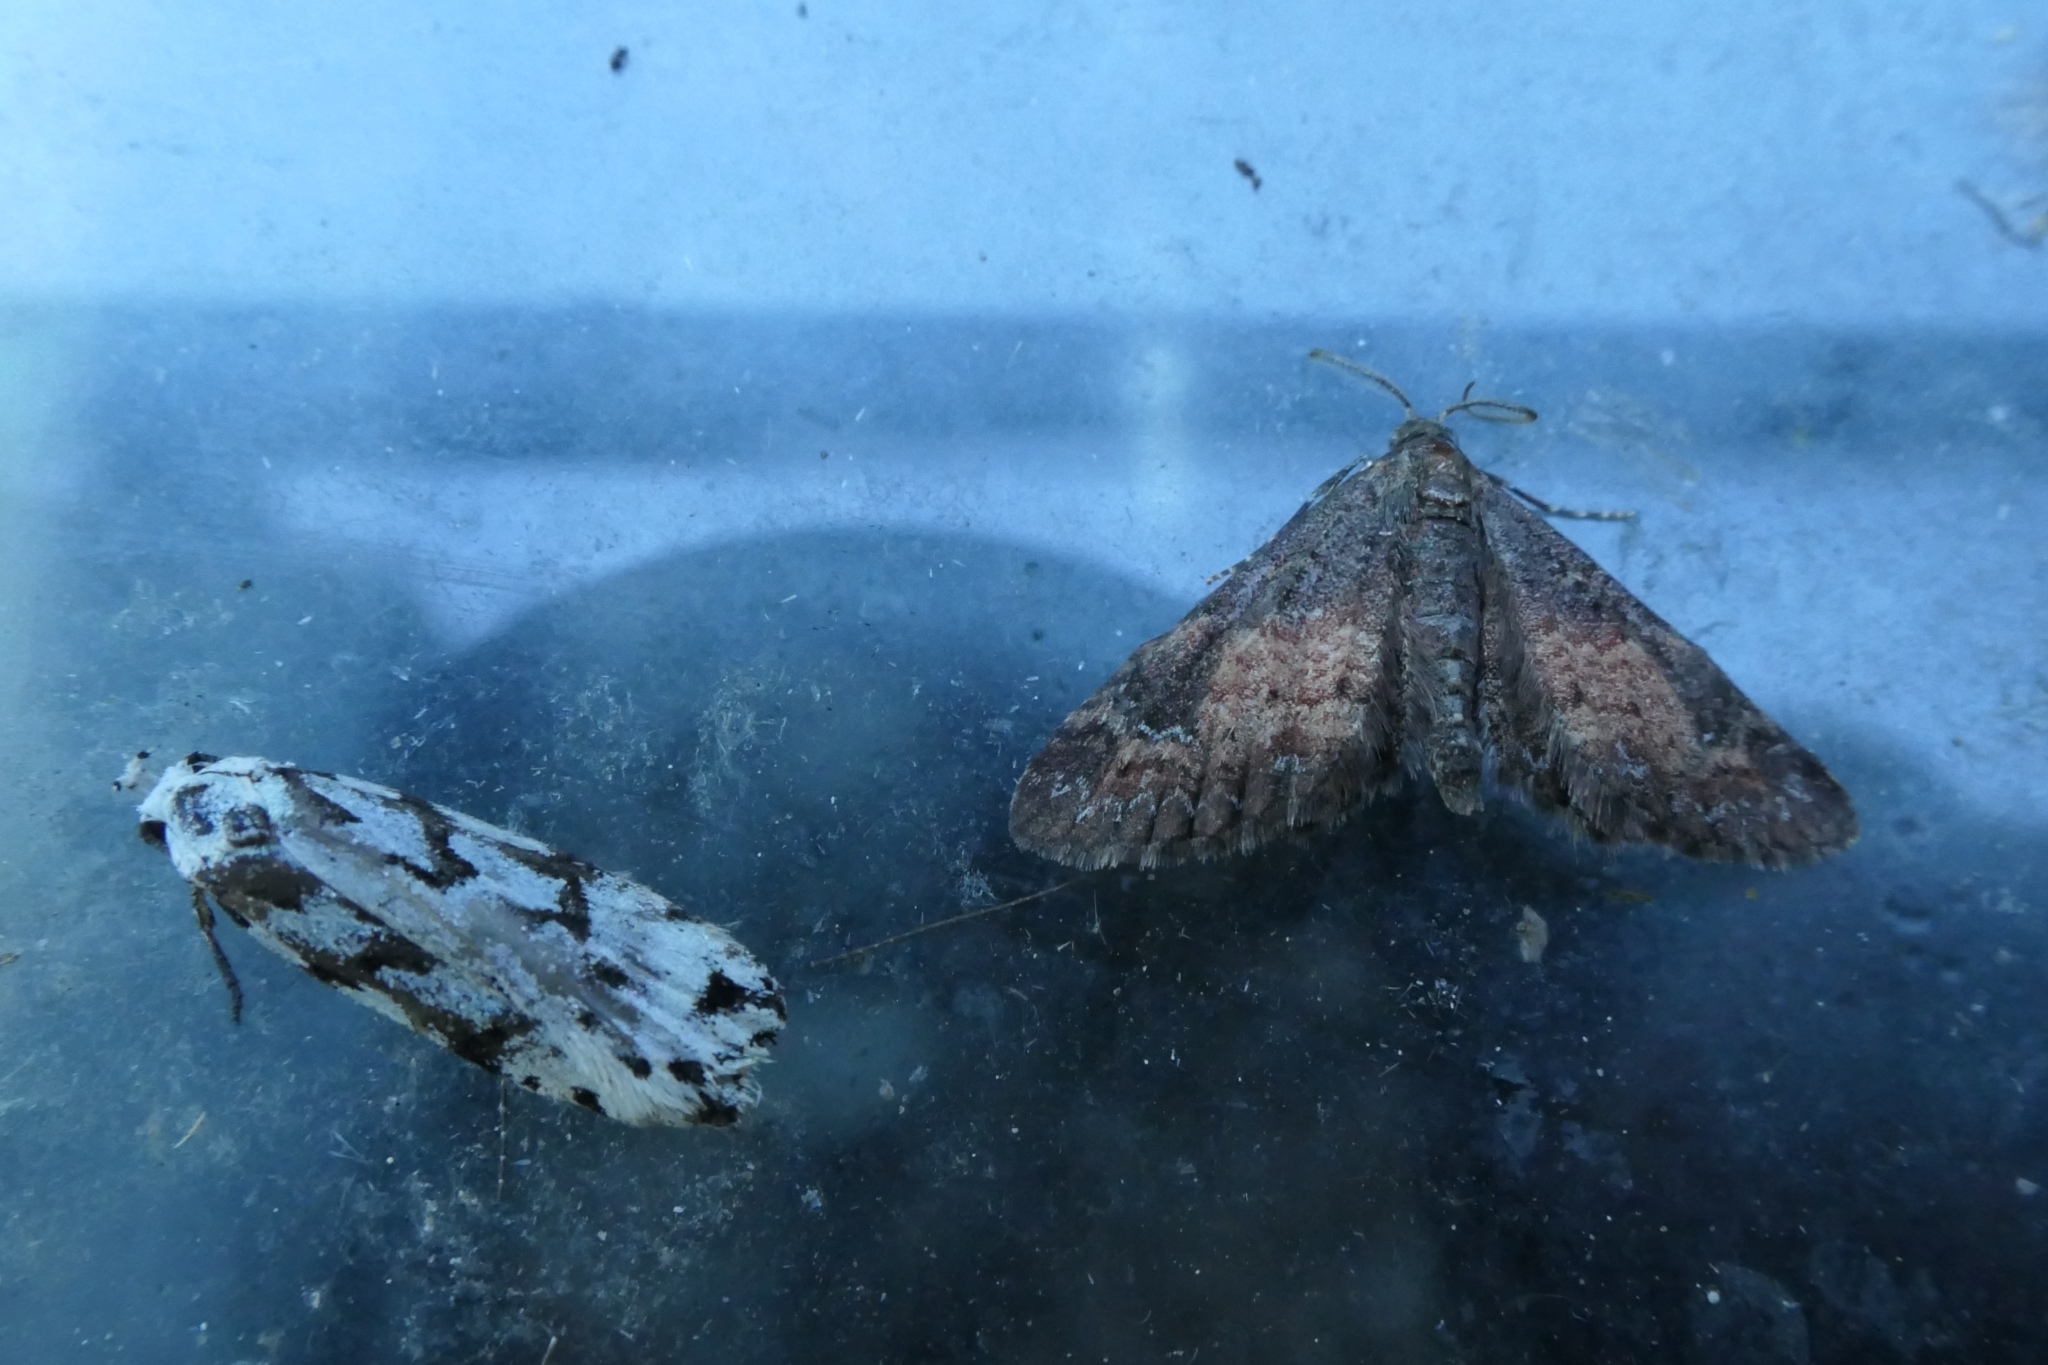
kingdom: Animalia
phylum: Arthropoda
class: Insecta
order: Lepidoptera
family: Geometridae
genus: Pasiphila
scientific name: Pasiphila lunata
